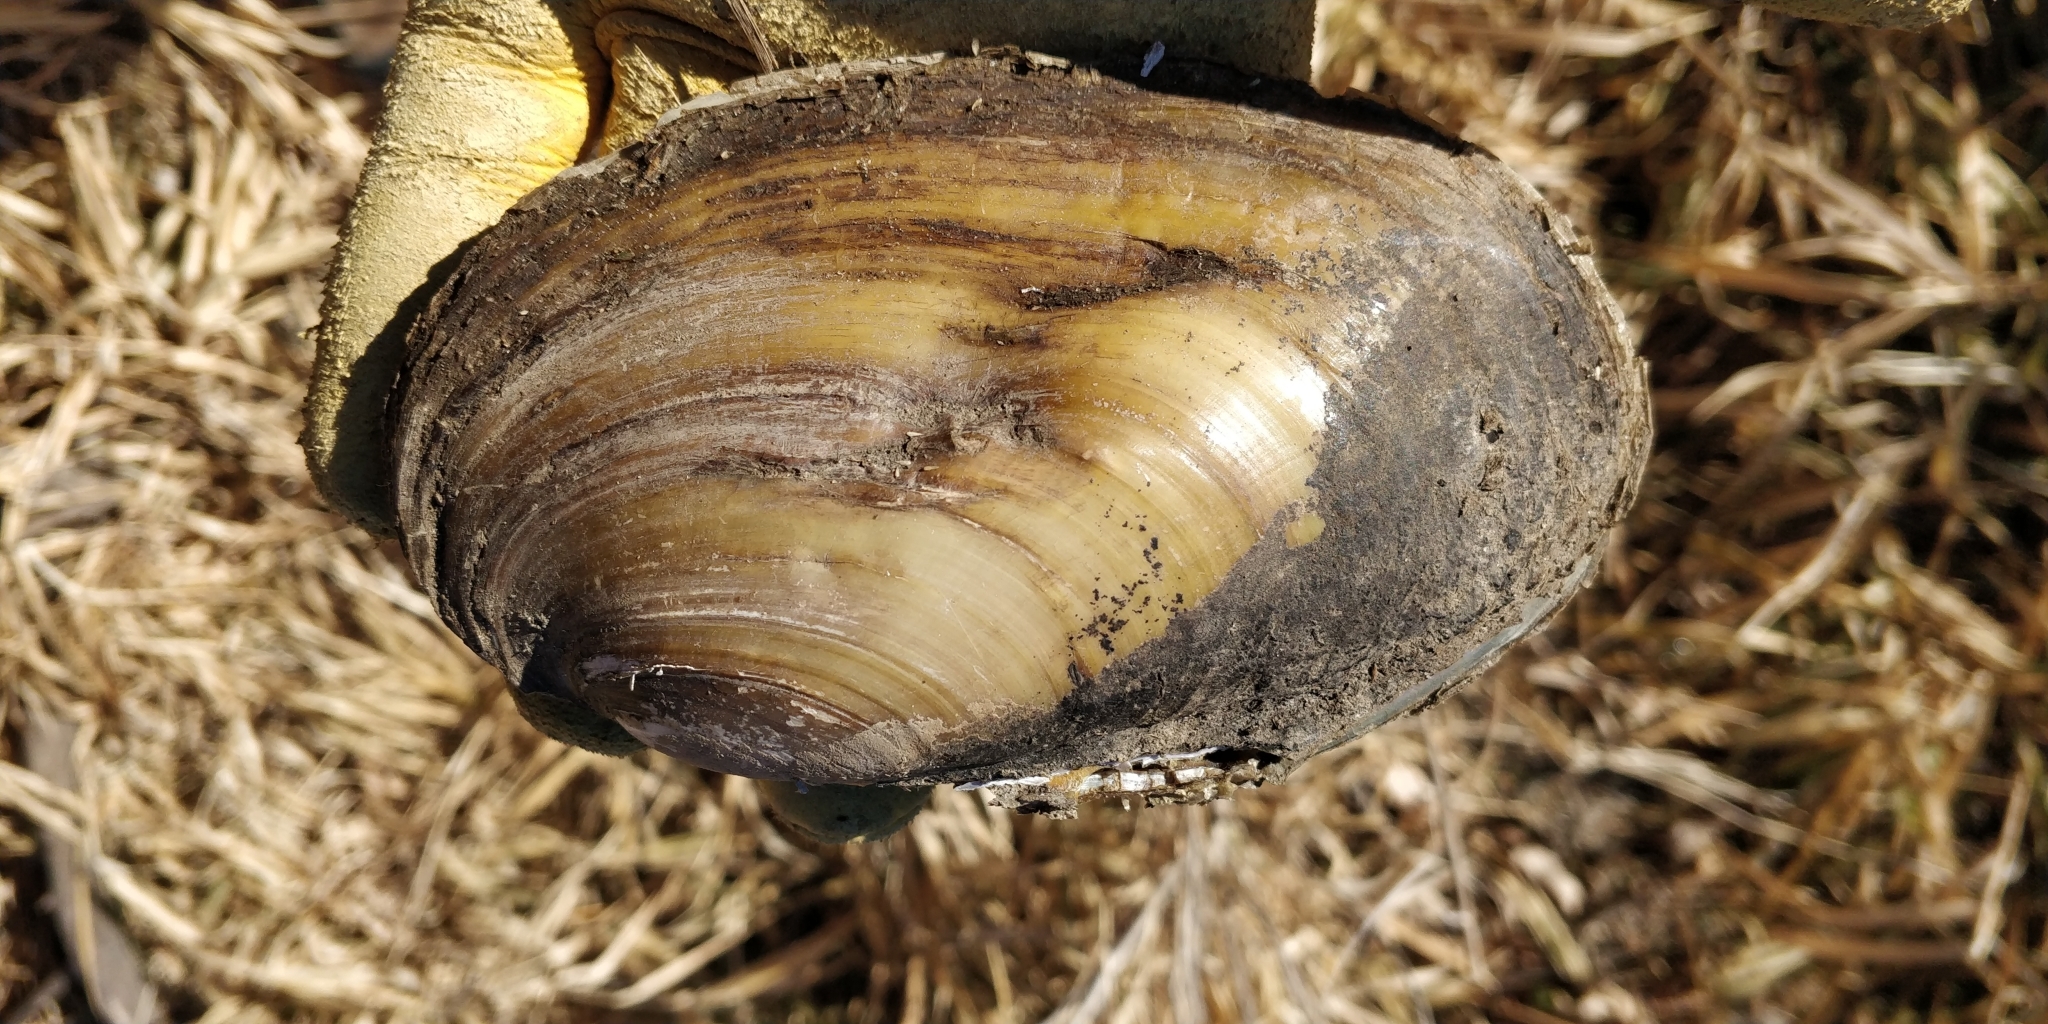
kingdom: Animalia
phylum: Mollusca
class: Bivalvia
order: Unionida
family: Unionidae
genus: Potamilus
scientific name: Potamilus fragilis
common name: Fragile papershell
